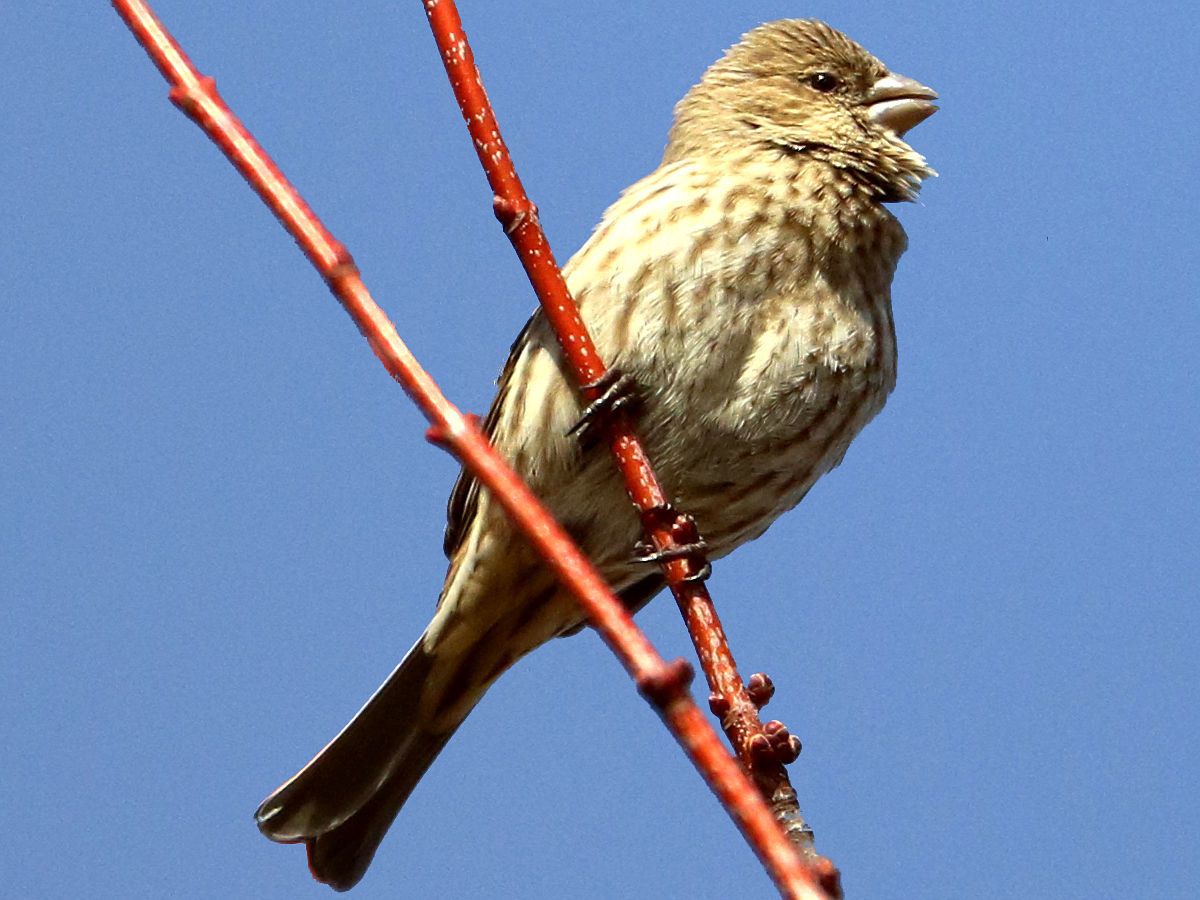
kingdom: Animalia
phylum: Chordata
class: Aves
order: Passeriformes
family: Fringillidae
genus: Haemorhous
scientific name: Haemorhous mexicanus
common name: House finch
